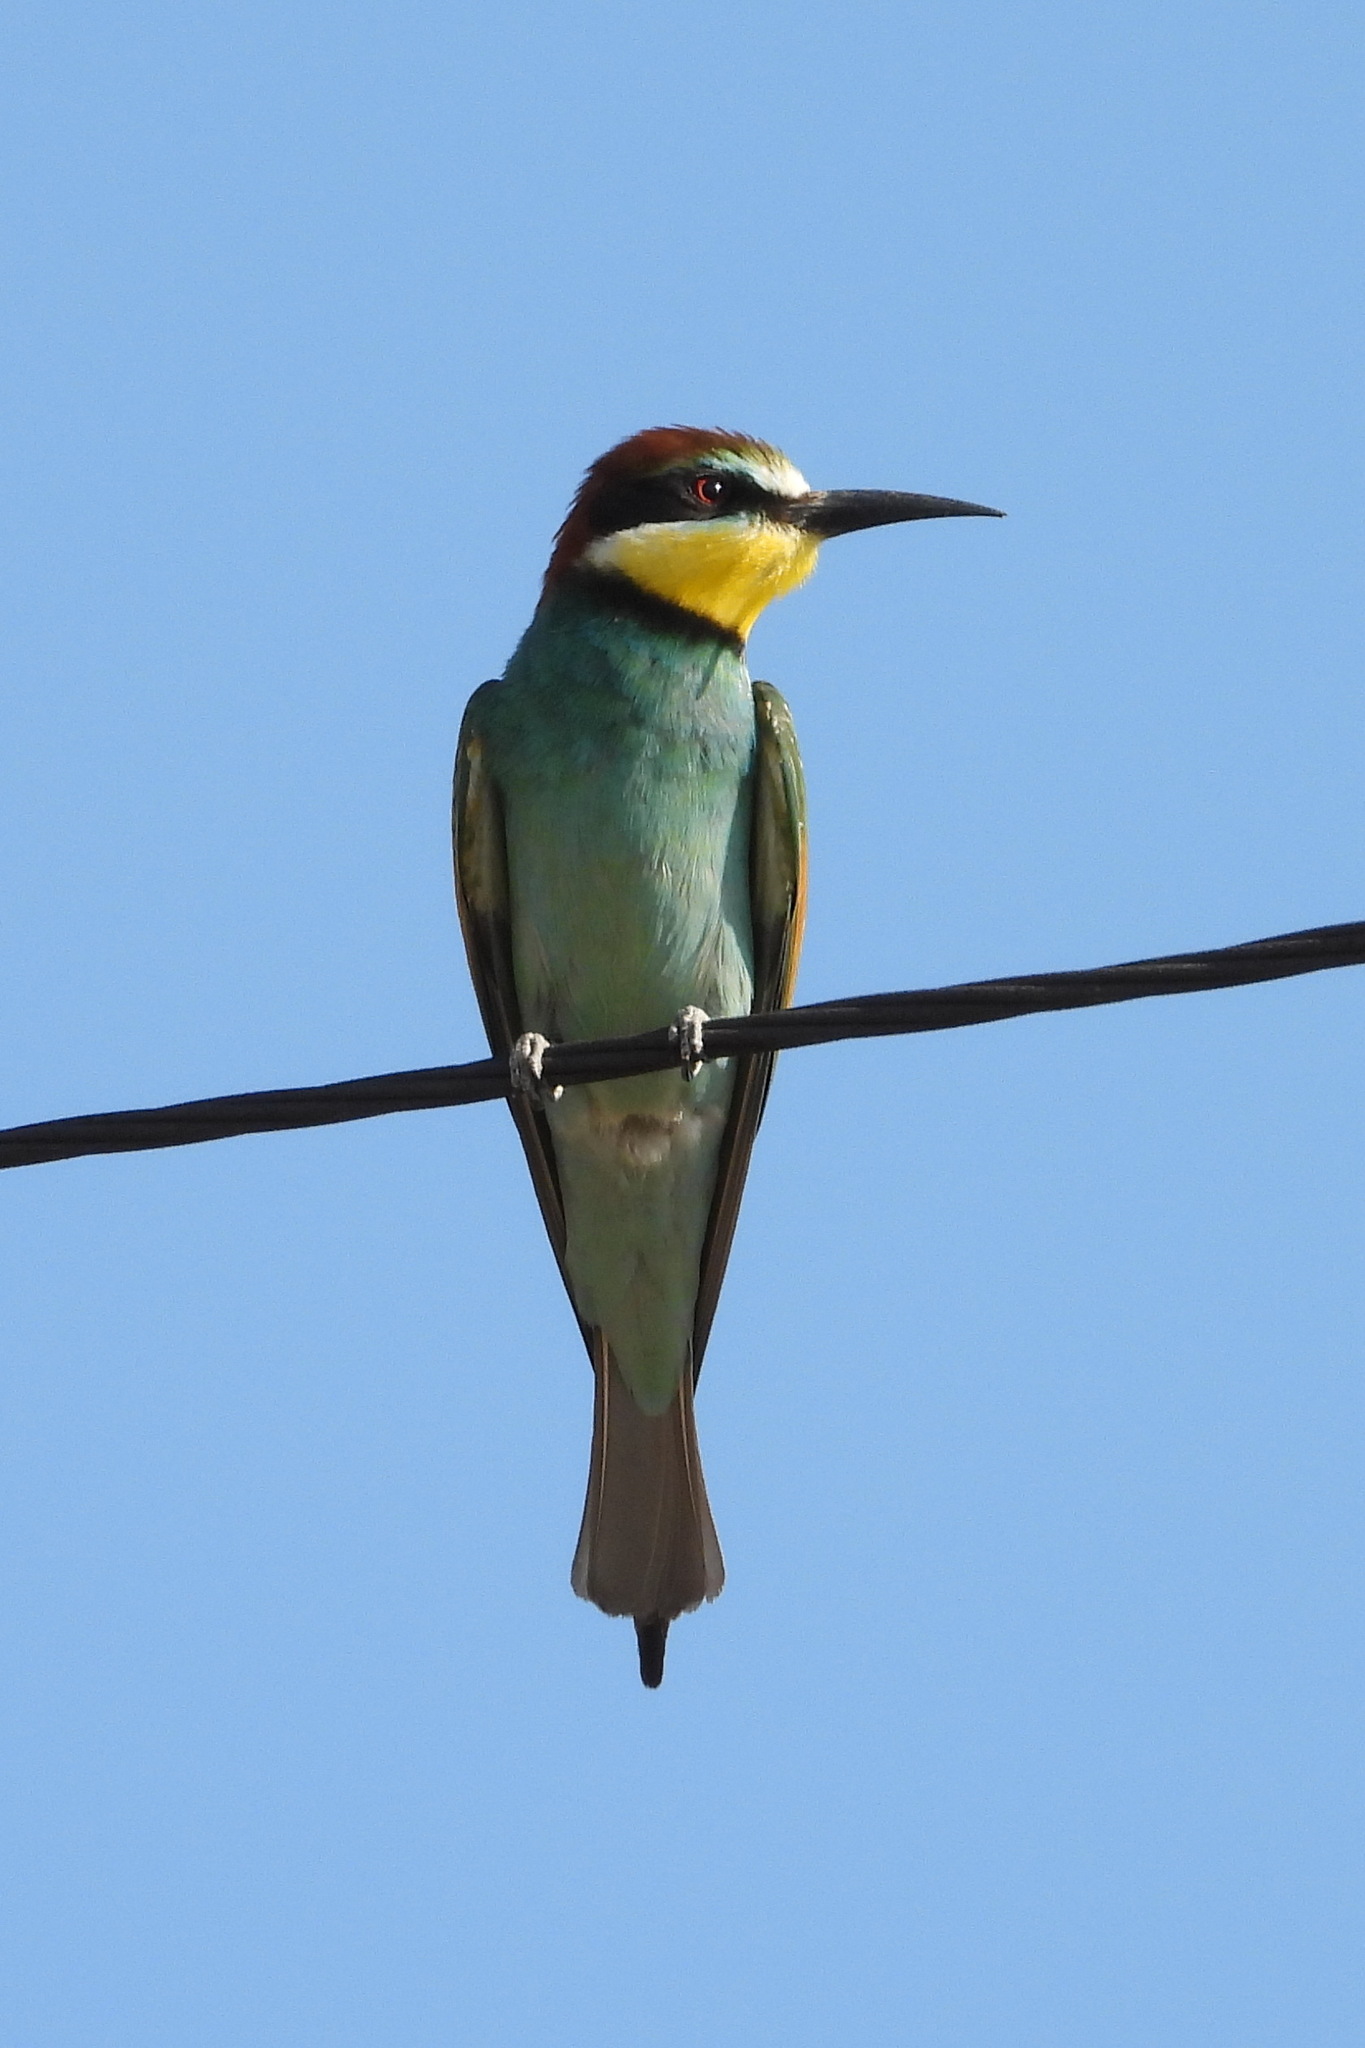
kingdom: Animalia
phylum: Chordata
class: Aves
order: Coraciiformes
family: Meropidae
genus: Merops
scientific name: Merops apiaster
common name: European bee-eater
